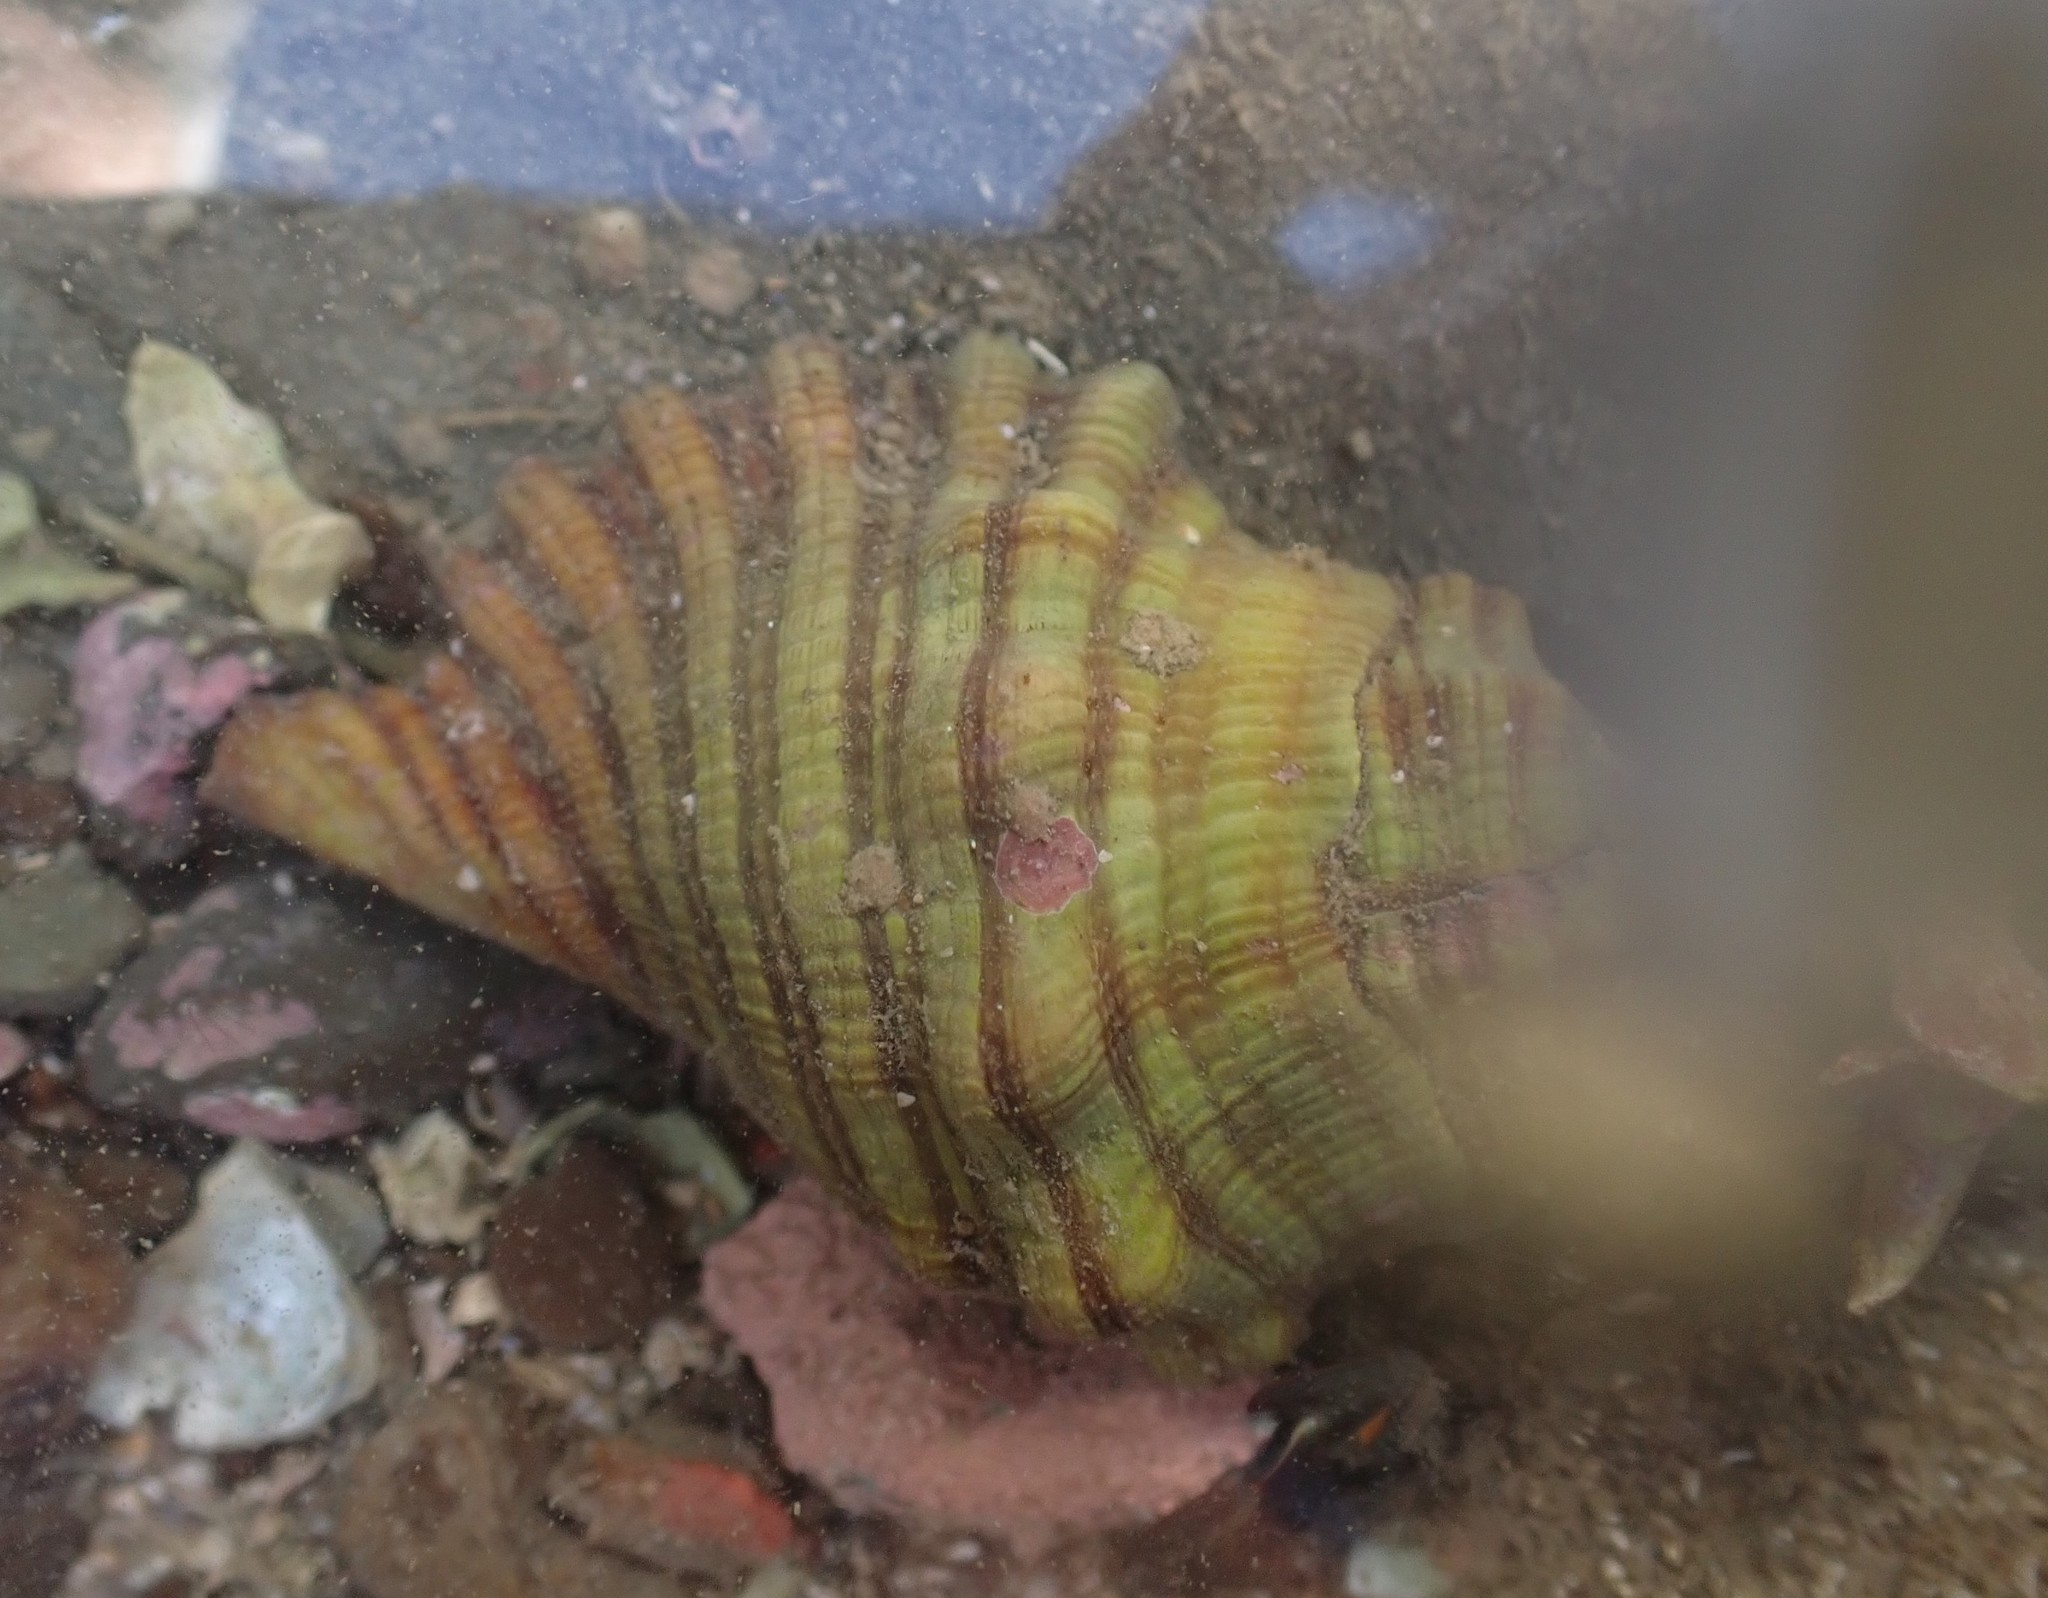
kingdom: Animalia
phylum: Mollusca
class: Gastropoda
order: Littorinimorpha
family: Cymatiidae
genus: Cabestana
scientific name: Cabestana spengleri
